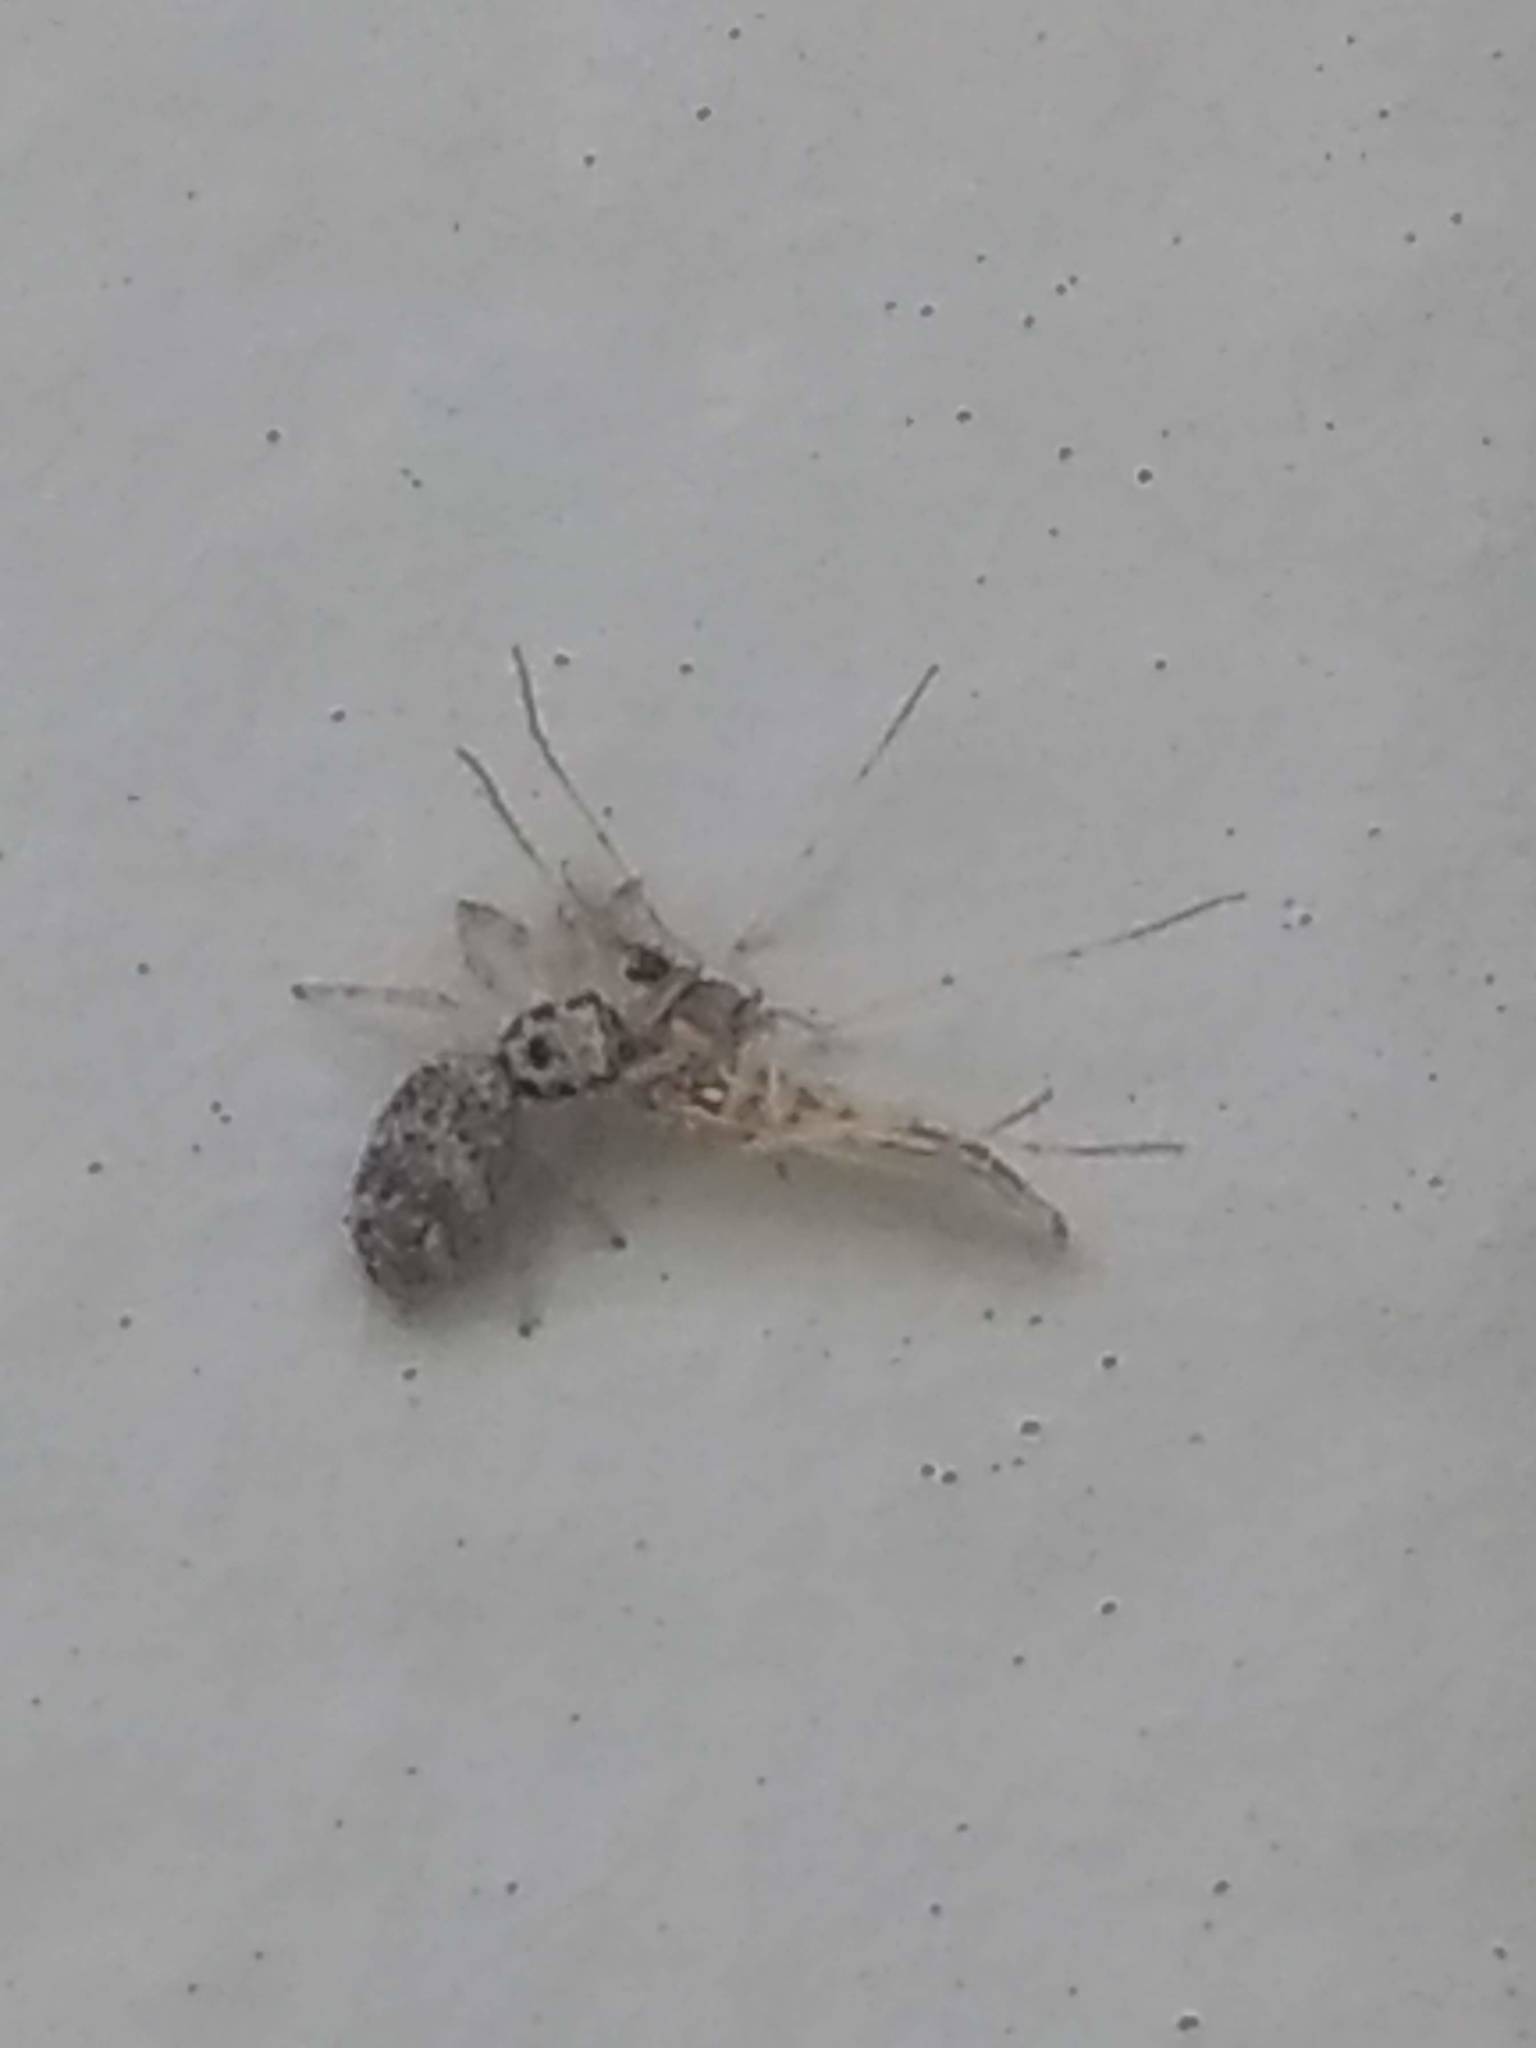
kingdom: Animalia
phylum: Arthropoda
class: Arachnida
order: Araneae
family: Salticidae
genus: Salticus
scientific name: Salticus scenicus
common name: Zebra jumper
